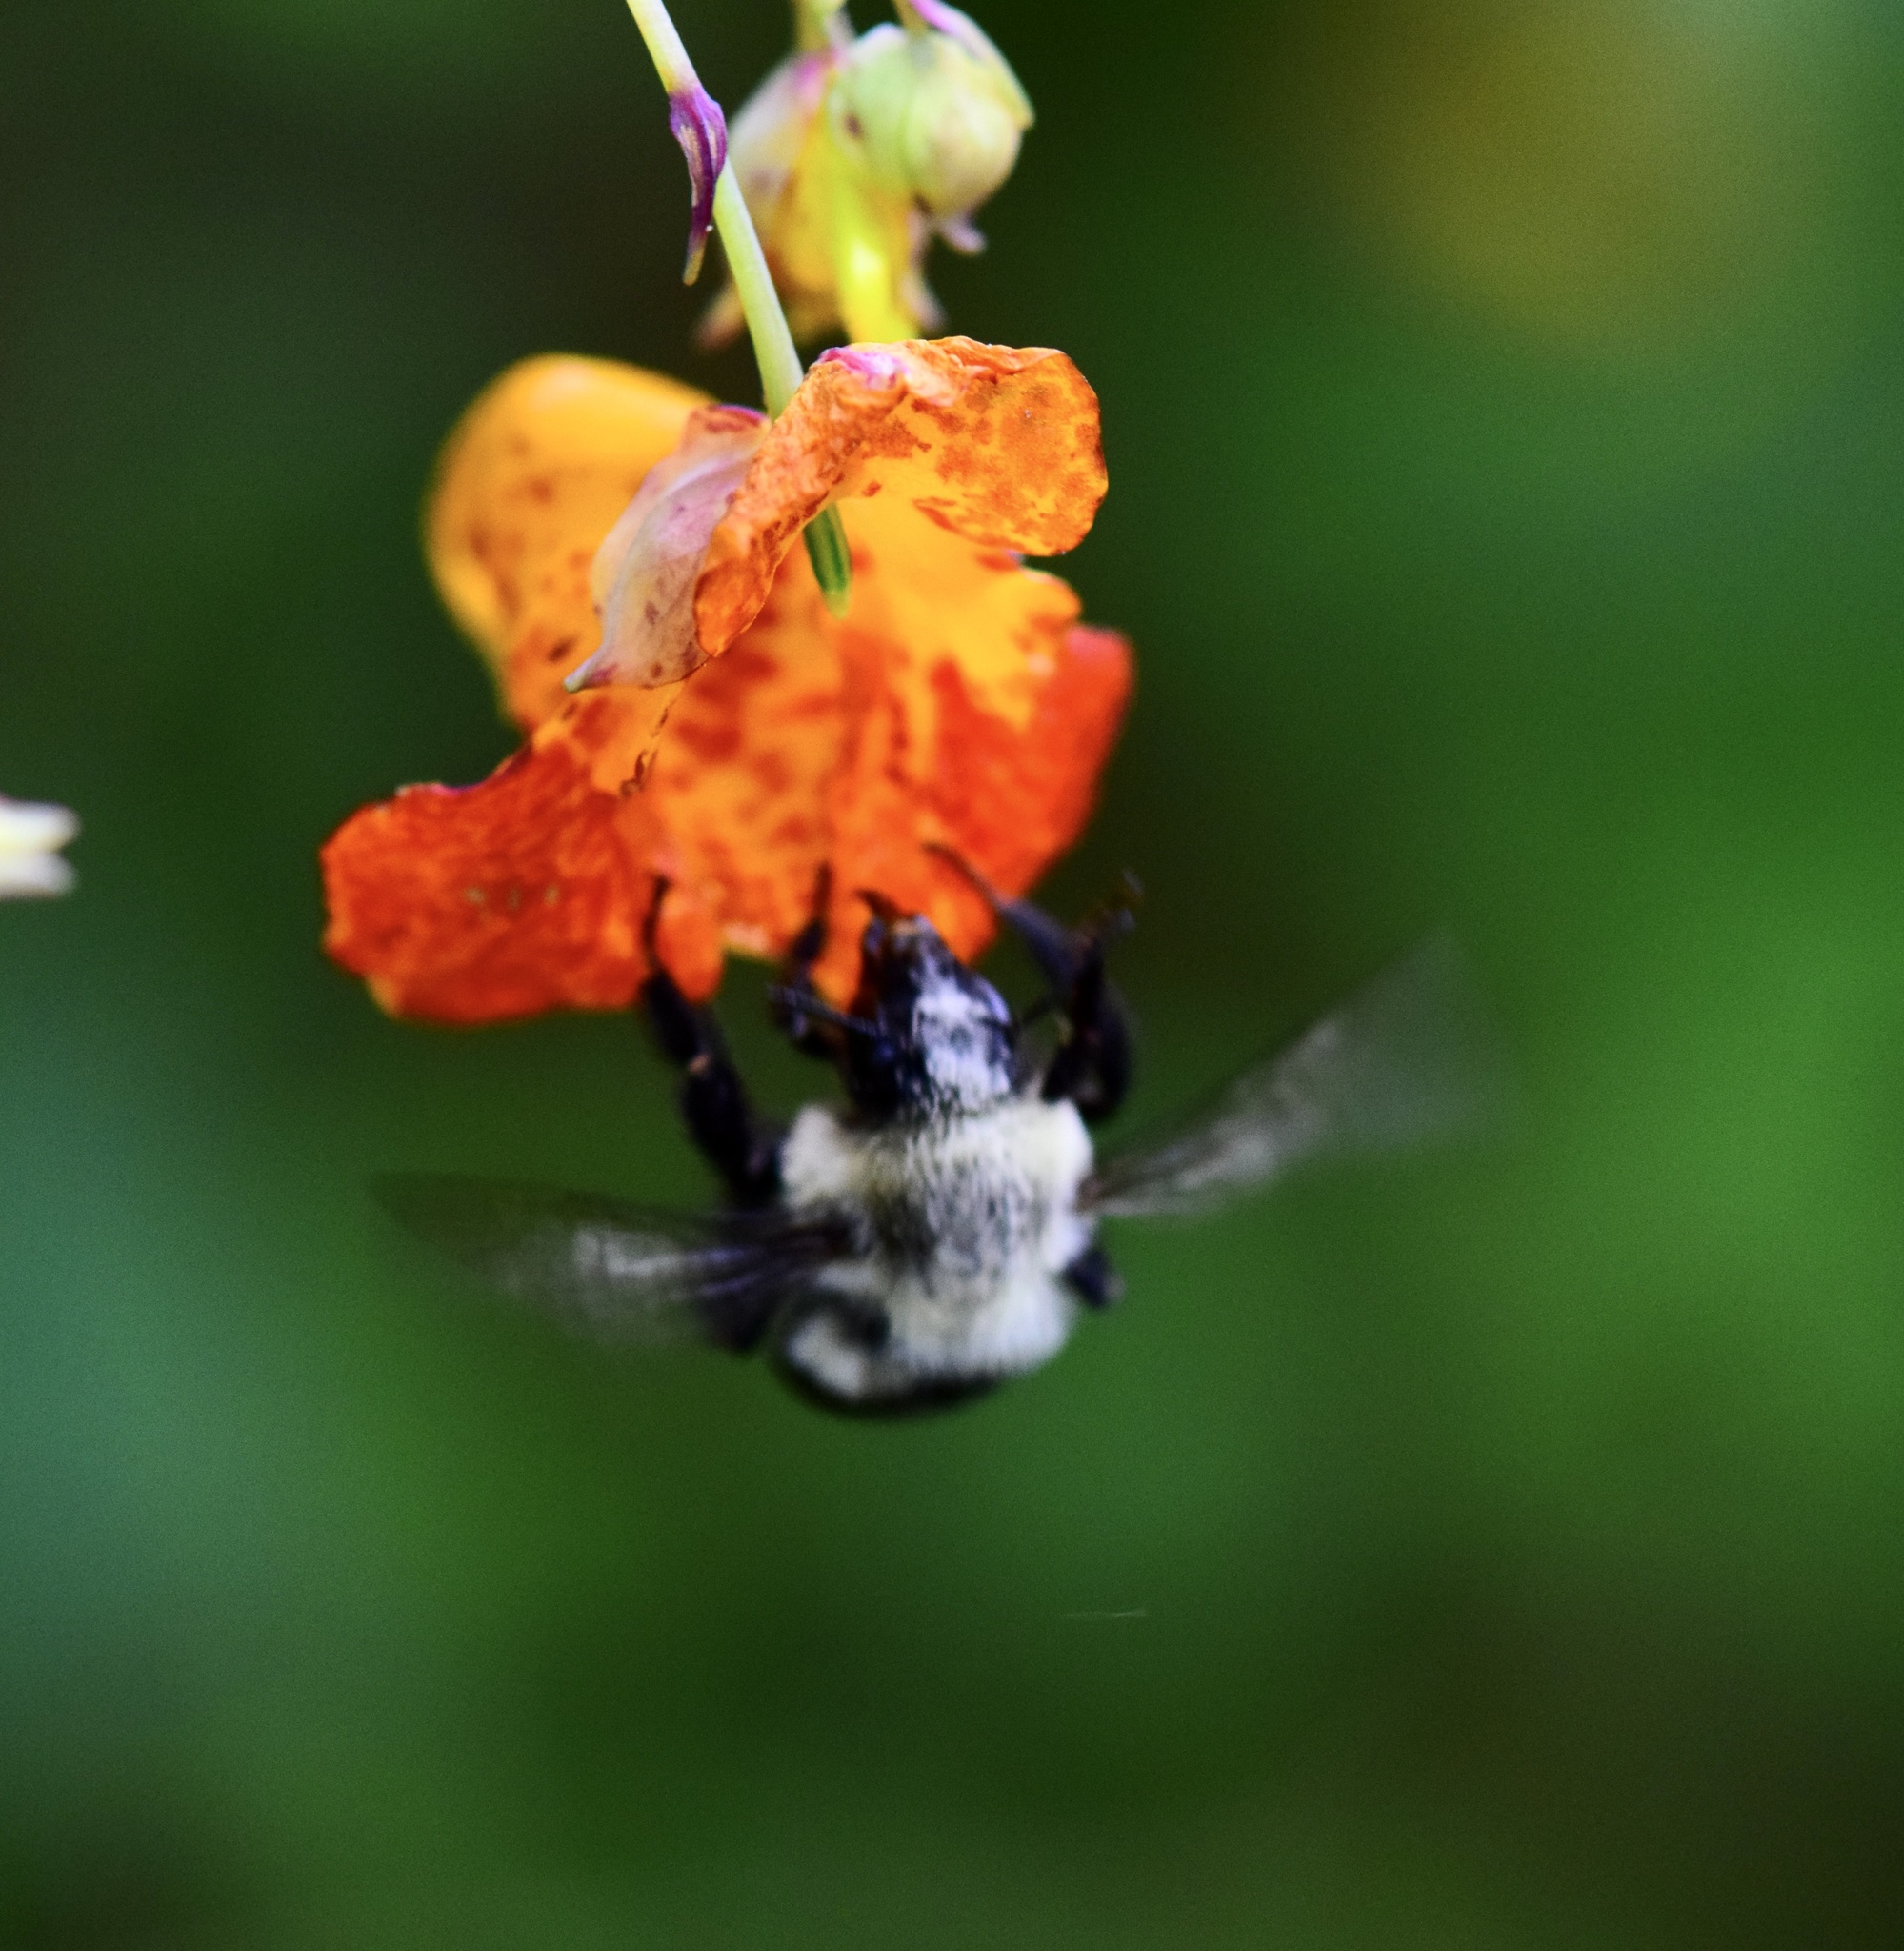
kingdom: Animalia
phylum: Arthropoda
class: Insecta
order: Hymenoptera
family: Apidae
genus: Bombus
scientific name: Bombus impatiens
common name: Common eastern bumble bee
